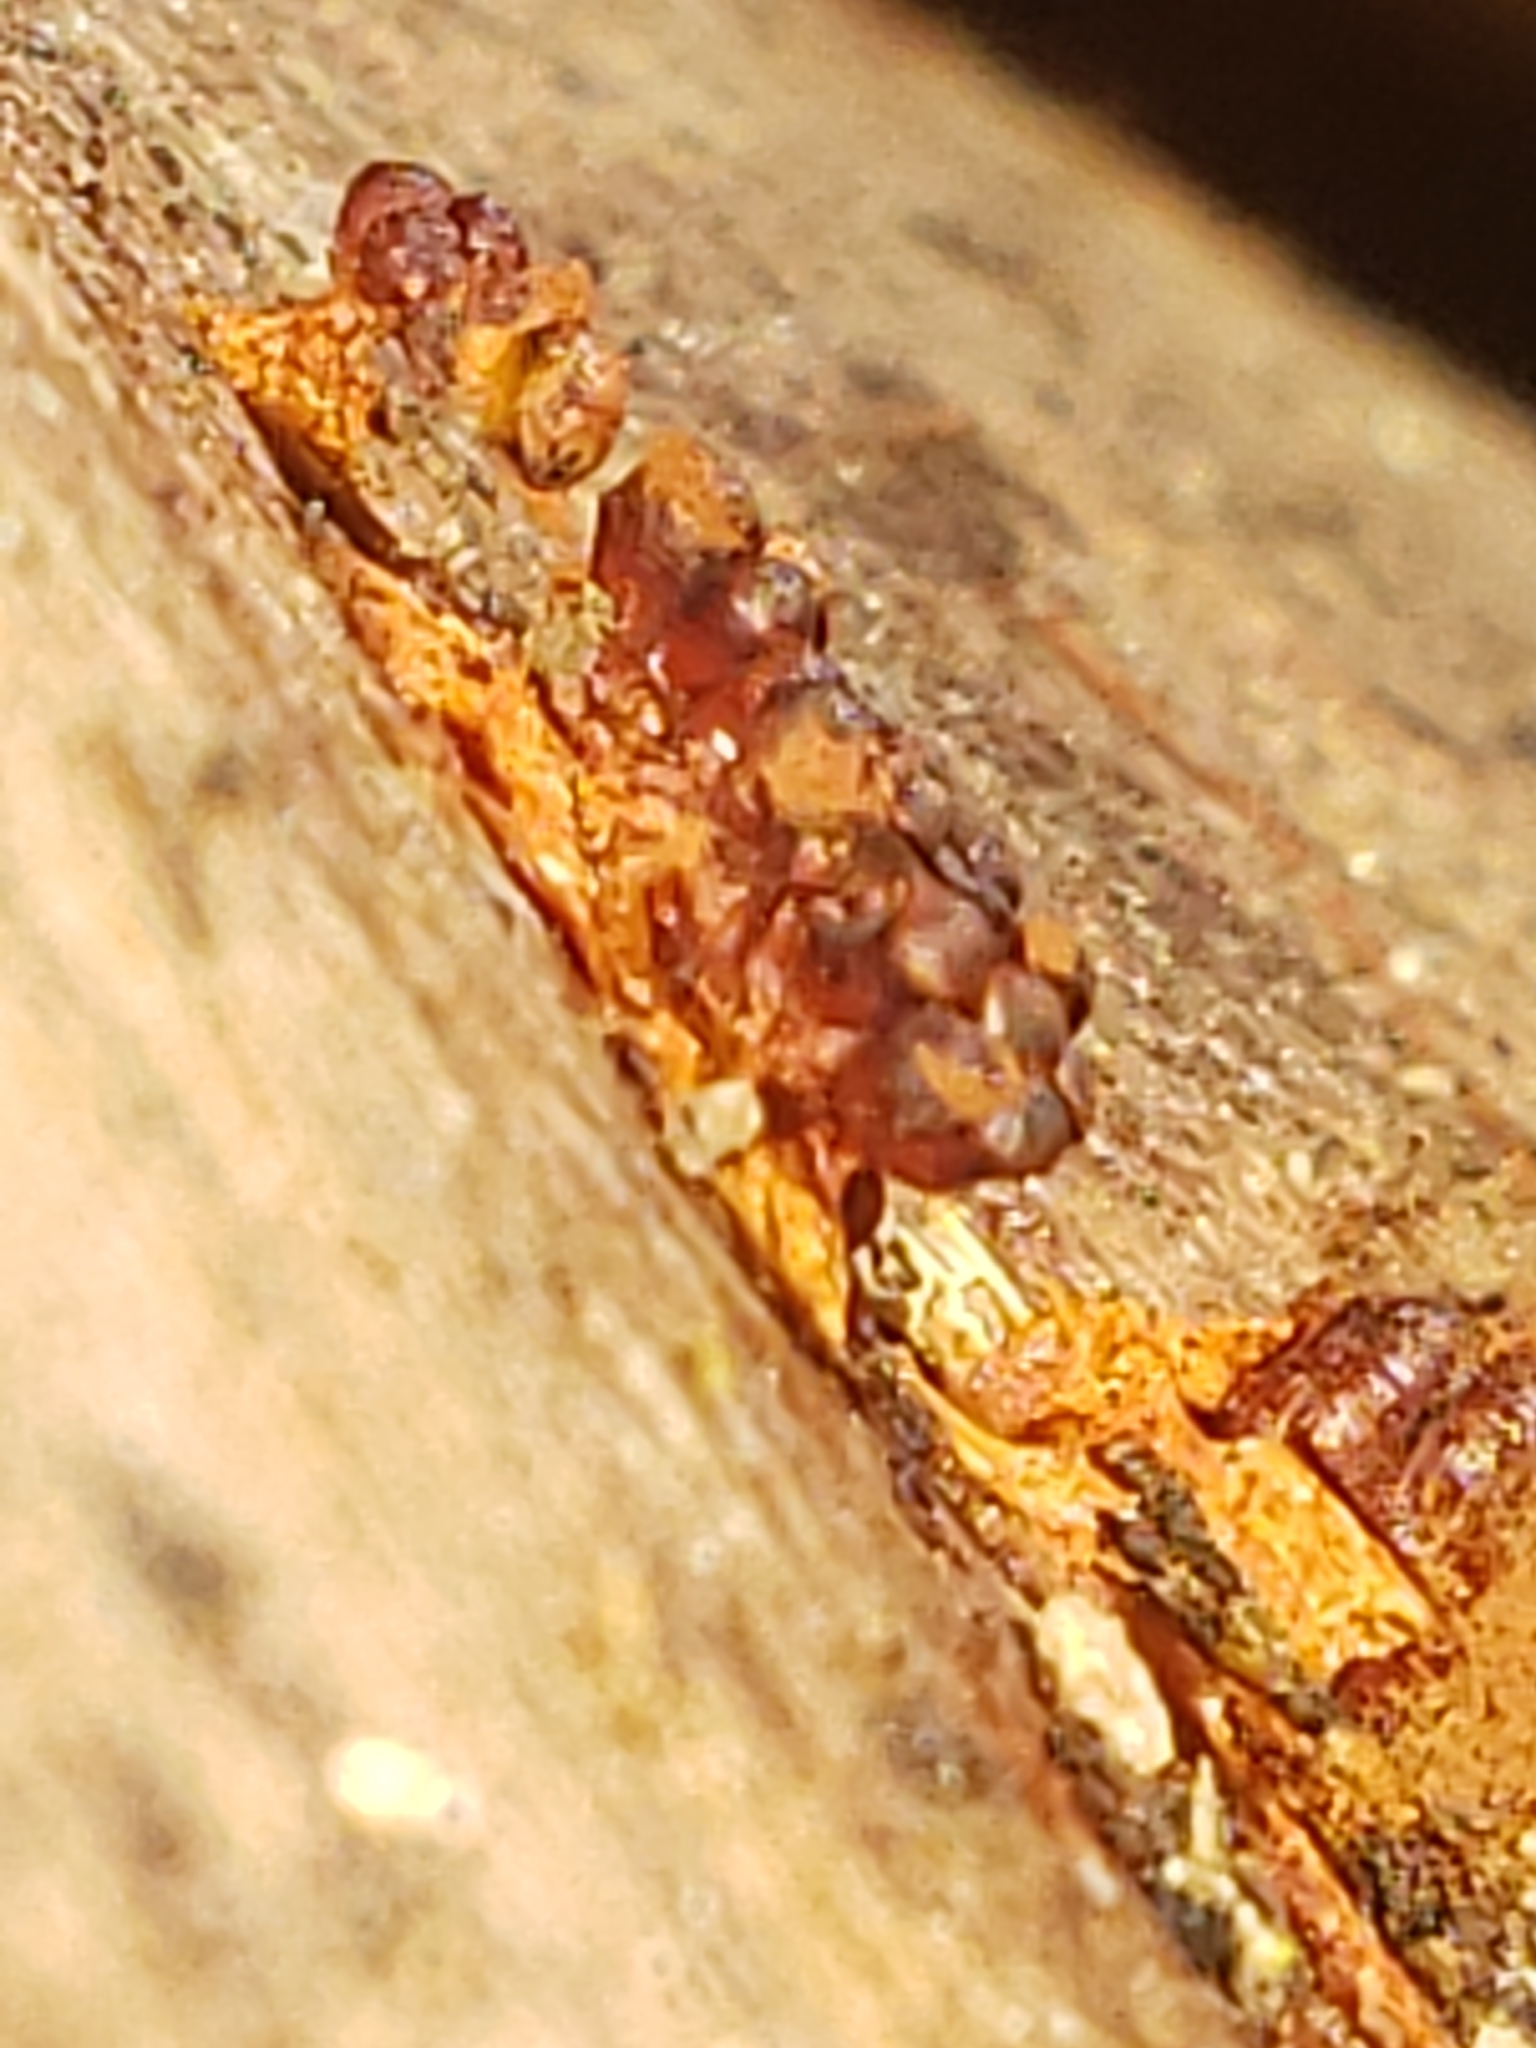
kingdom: Protozoa
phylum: Mycetozoa
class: Myxomycetes
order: Trichiales
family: Trichiaceae
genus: Metatrichia
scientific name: Metatrichia vesparia
